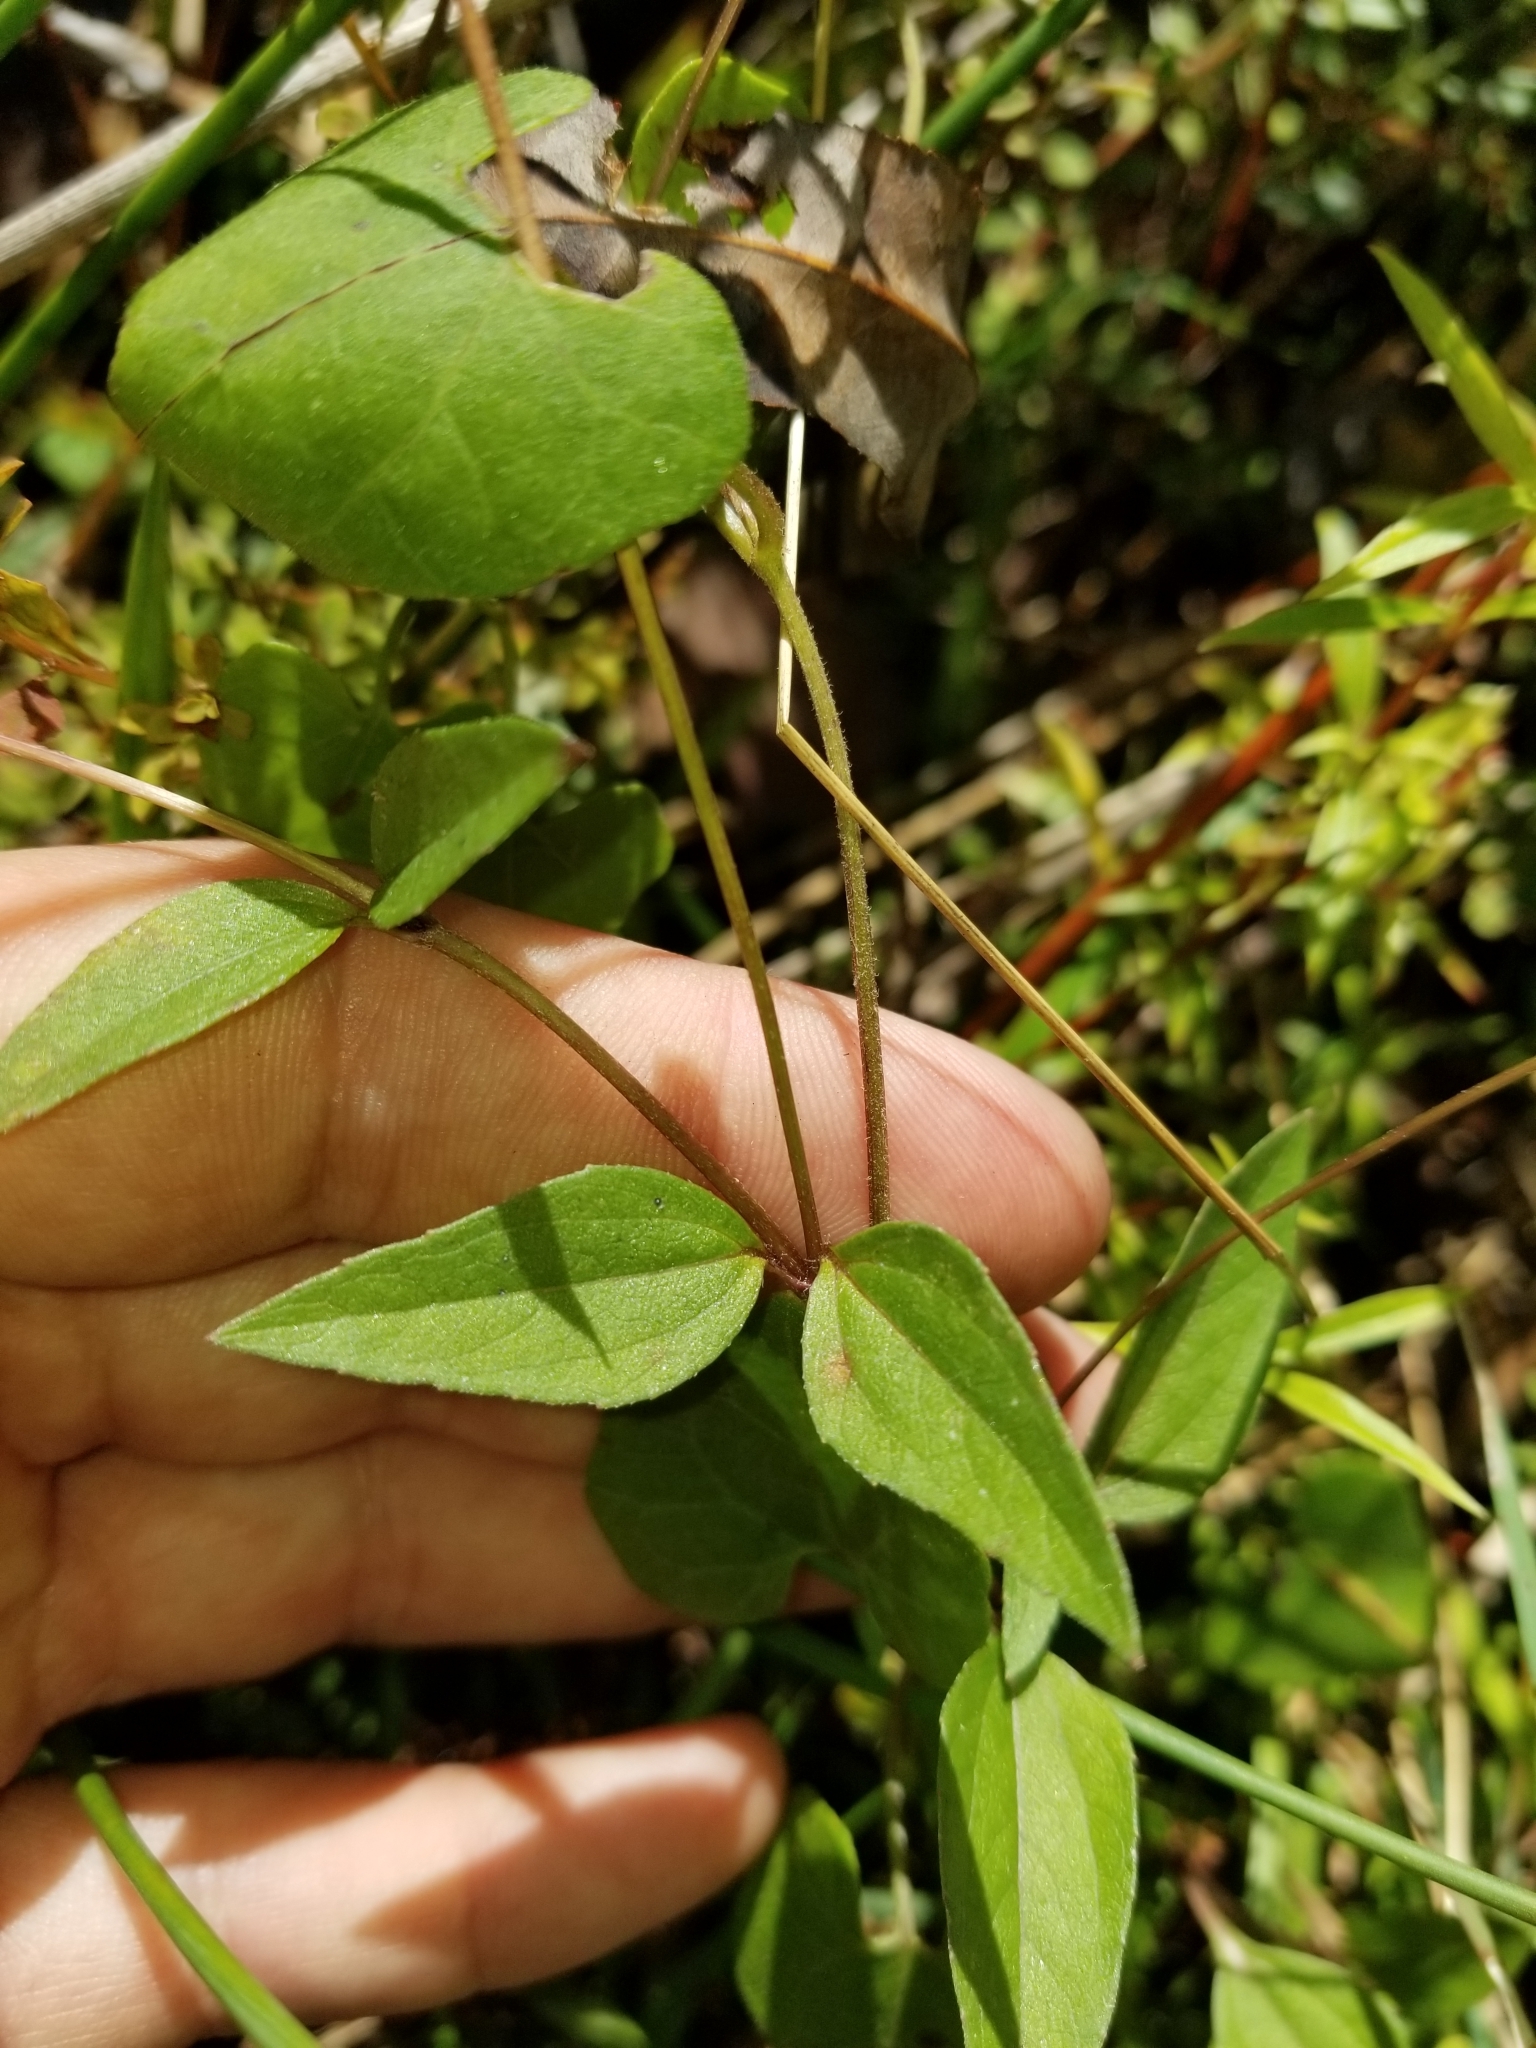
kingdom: Plantae
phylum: Tracheophyta
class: Magnoliopsida
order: Asterales
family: Asteraceae
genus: Acmella
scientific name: Acmella repens
